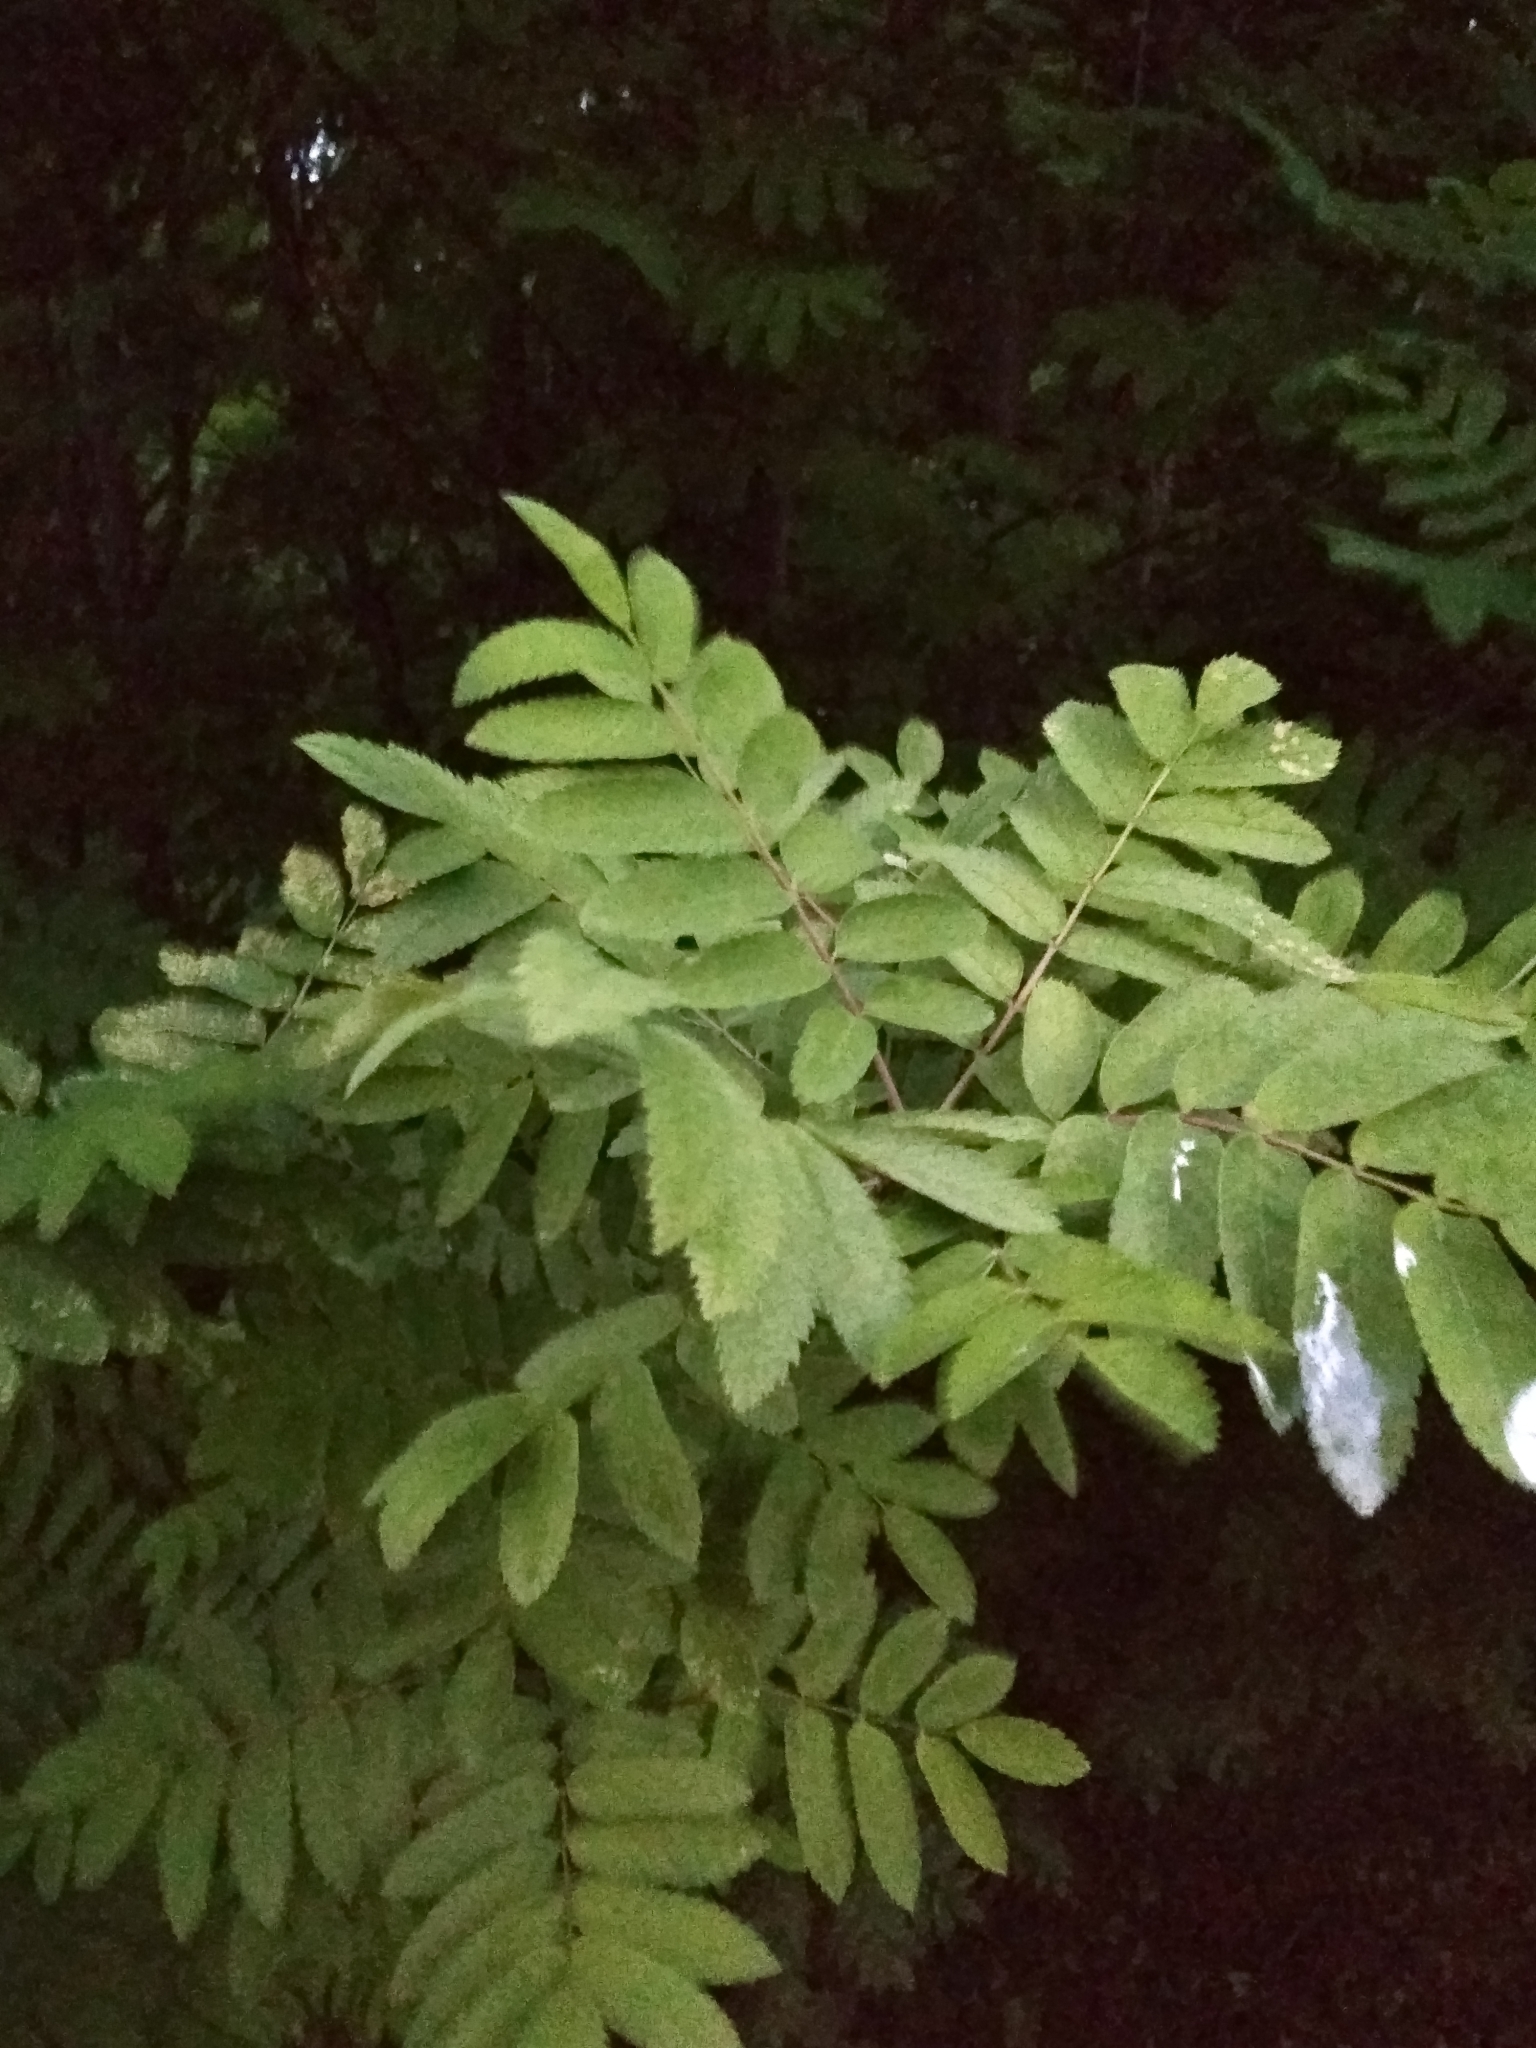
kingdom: Plantae
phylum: Tracheophyta
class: Magnoliopsida
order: Rosales
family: Rosaceae
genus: Sorbus
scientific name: Sorbus aucuparia
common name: Rowan
